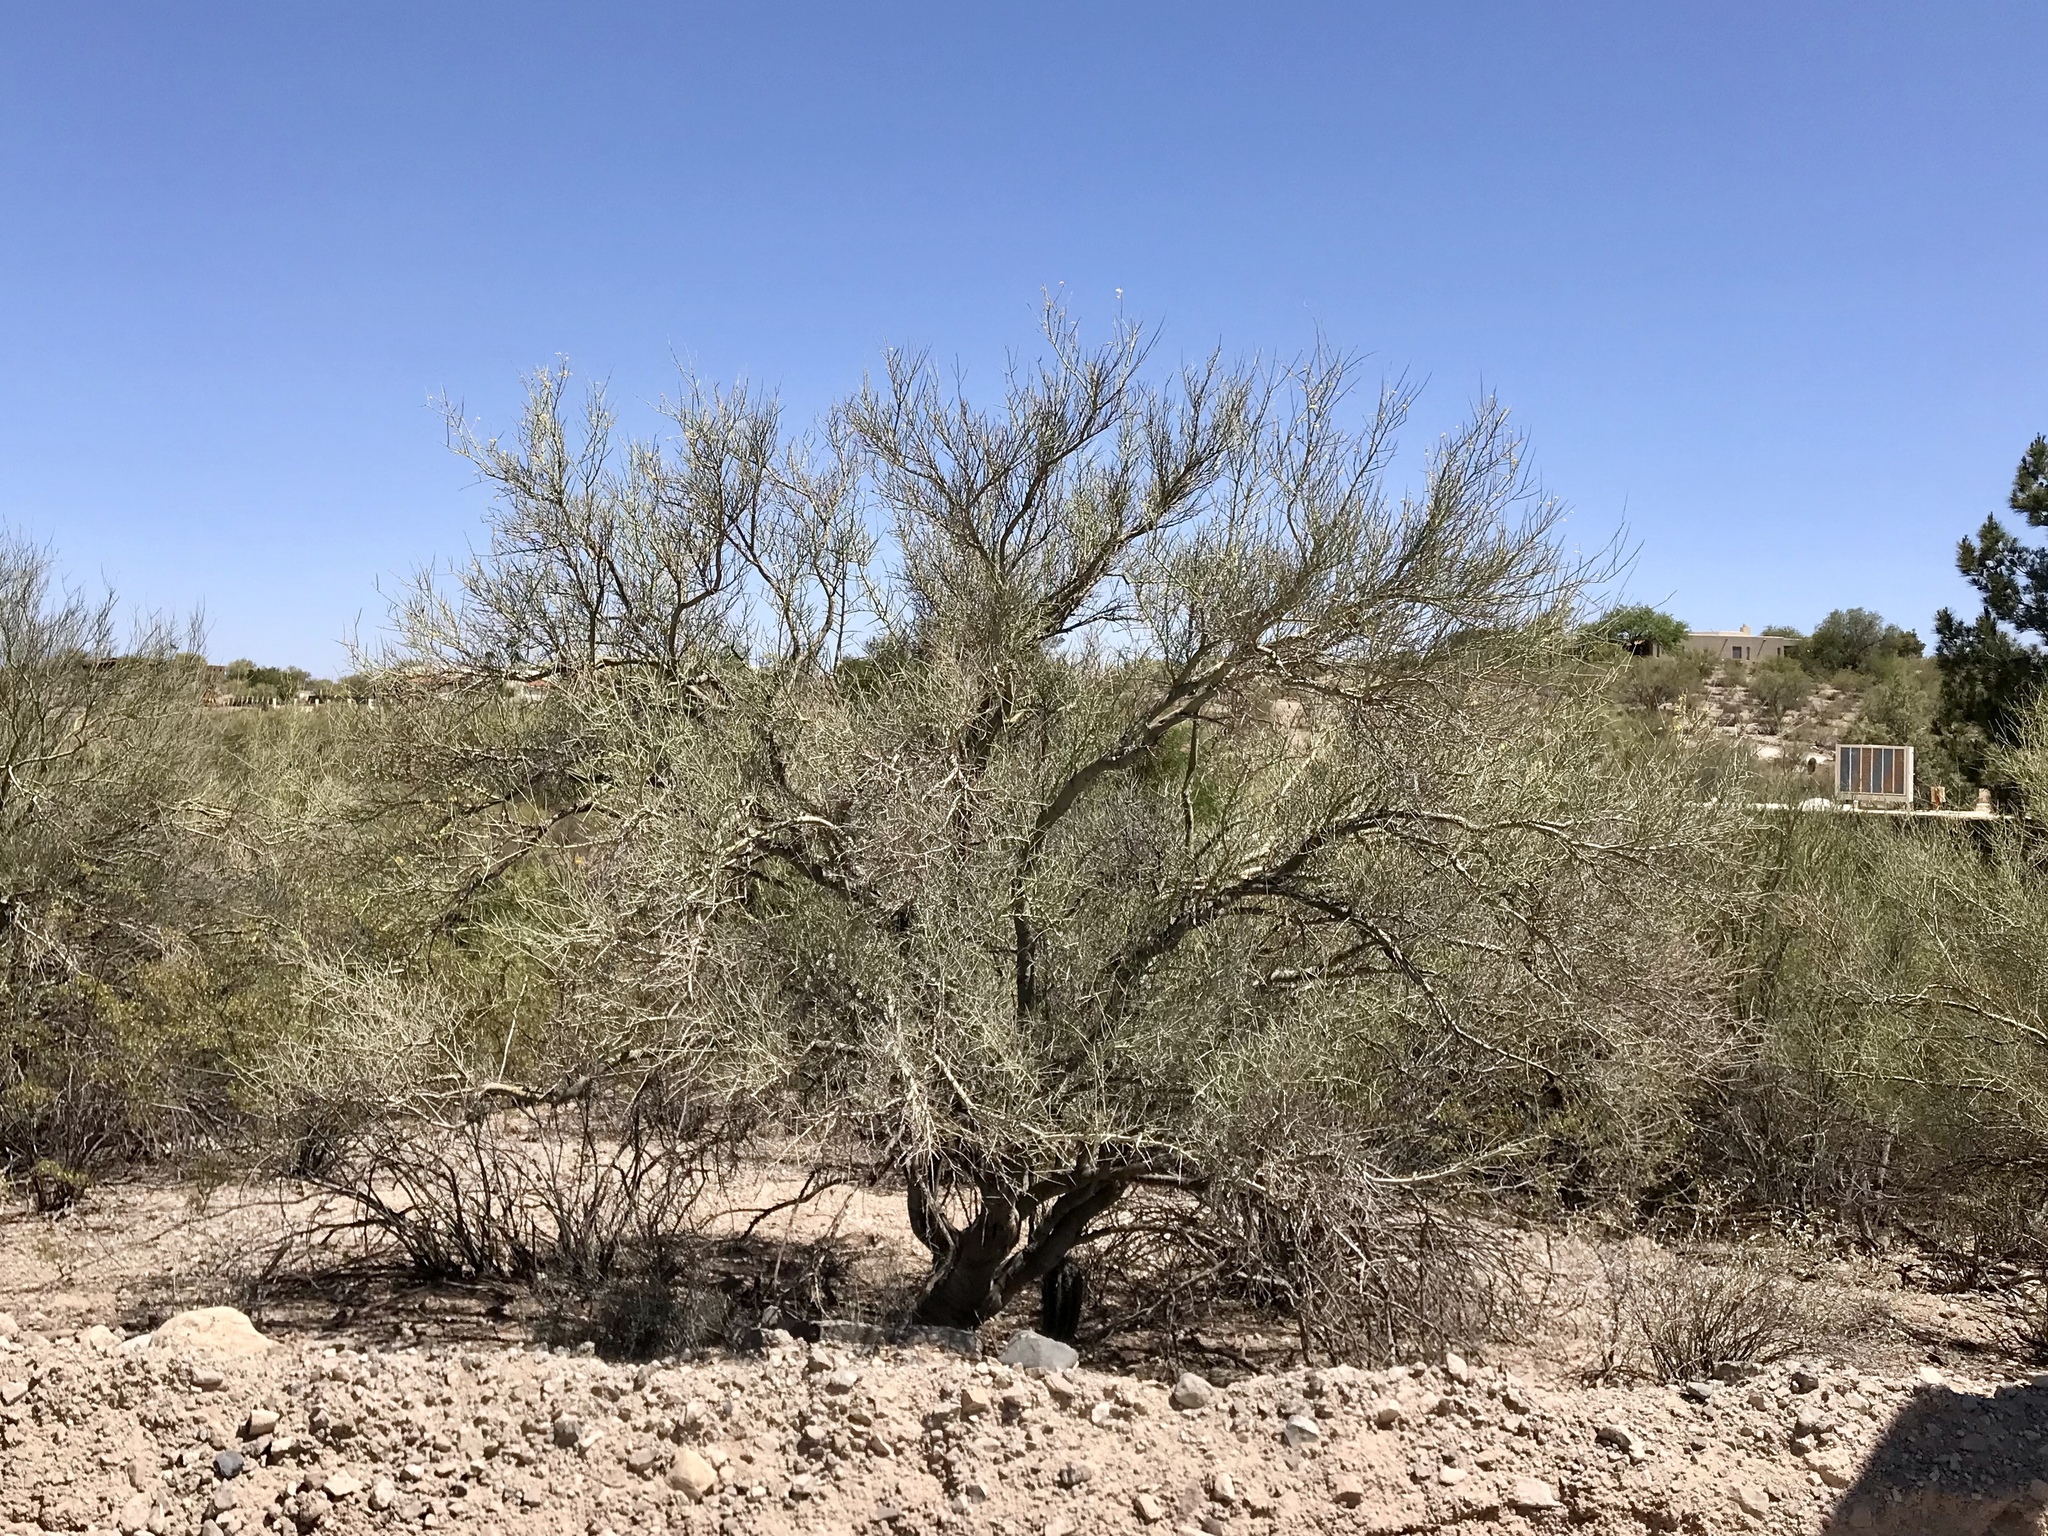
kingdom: Plantae
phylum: Tracheophyta
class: Magnoliopsida
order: Fabales
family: Fabaceae
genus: Parkinsonia
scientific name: Parkinsonia microphylla
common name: Yellow paloverde
